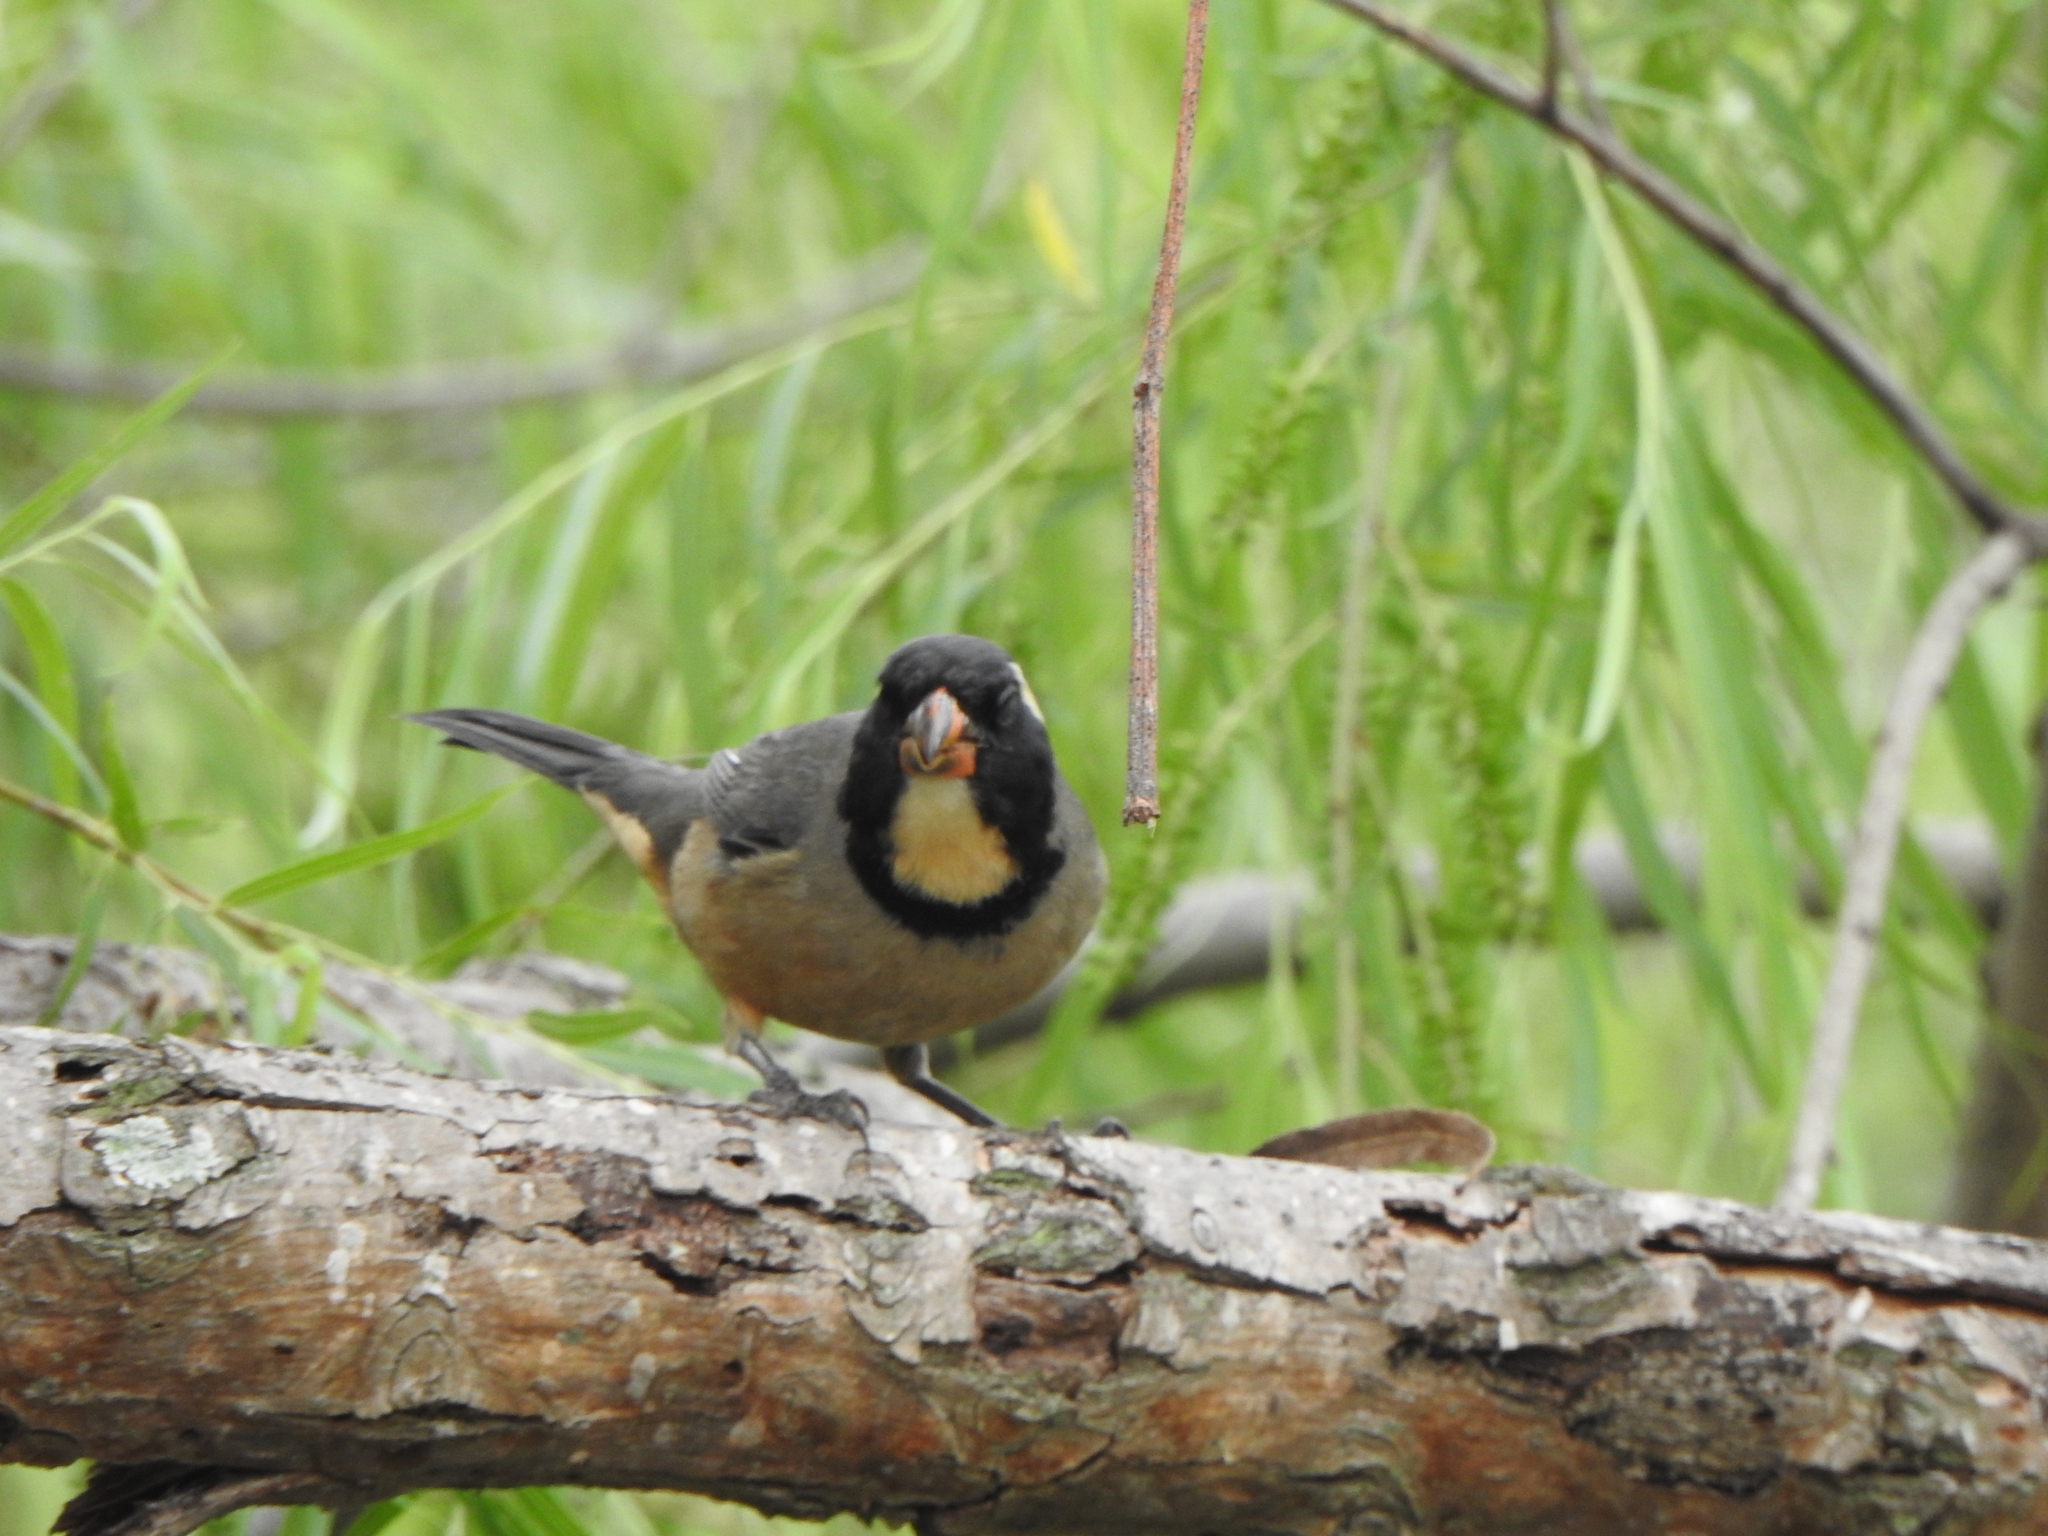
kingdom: Animalia
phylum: Chordata
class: Aves
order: Passeriformes
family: Thraupidae
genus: Saltator
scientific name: Saltator aurantiirostris
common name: Golden-billed saltator
